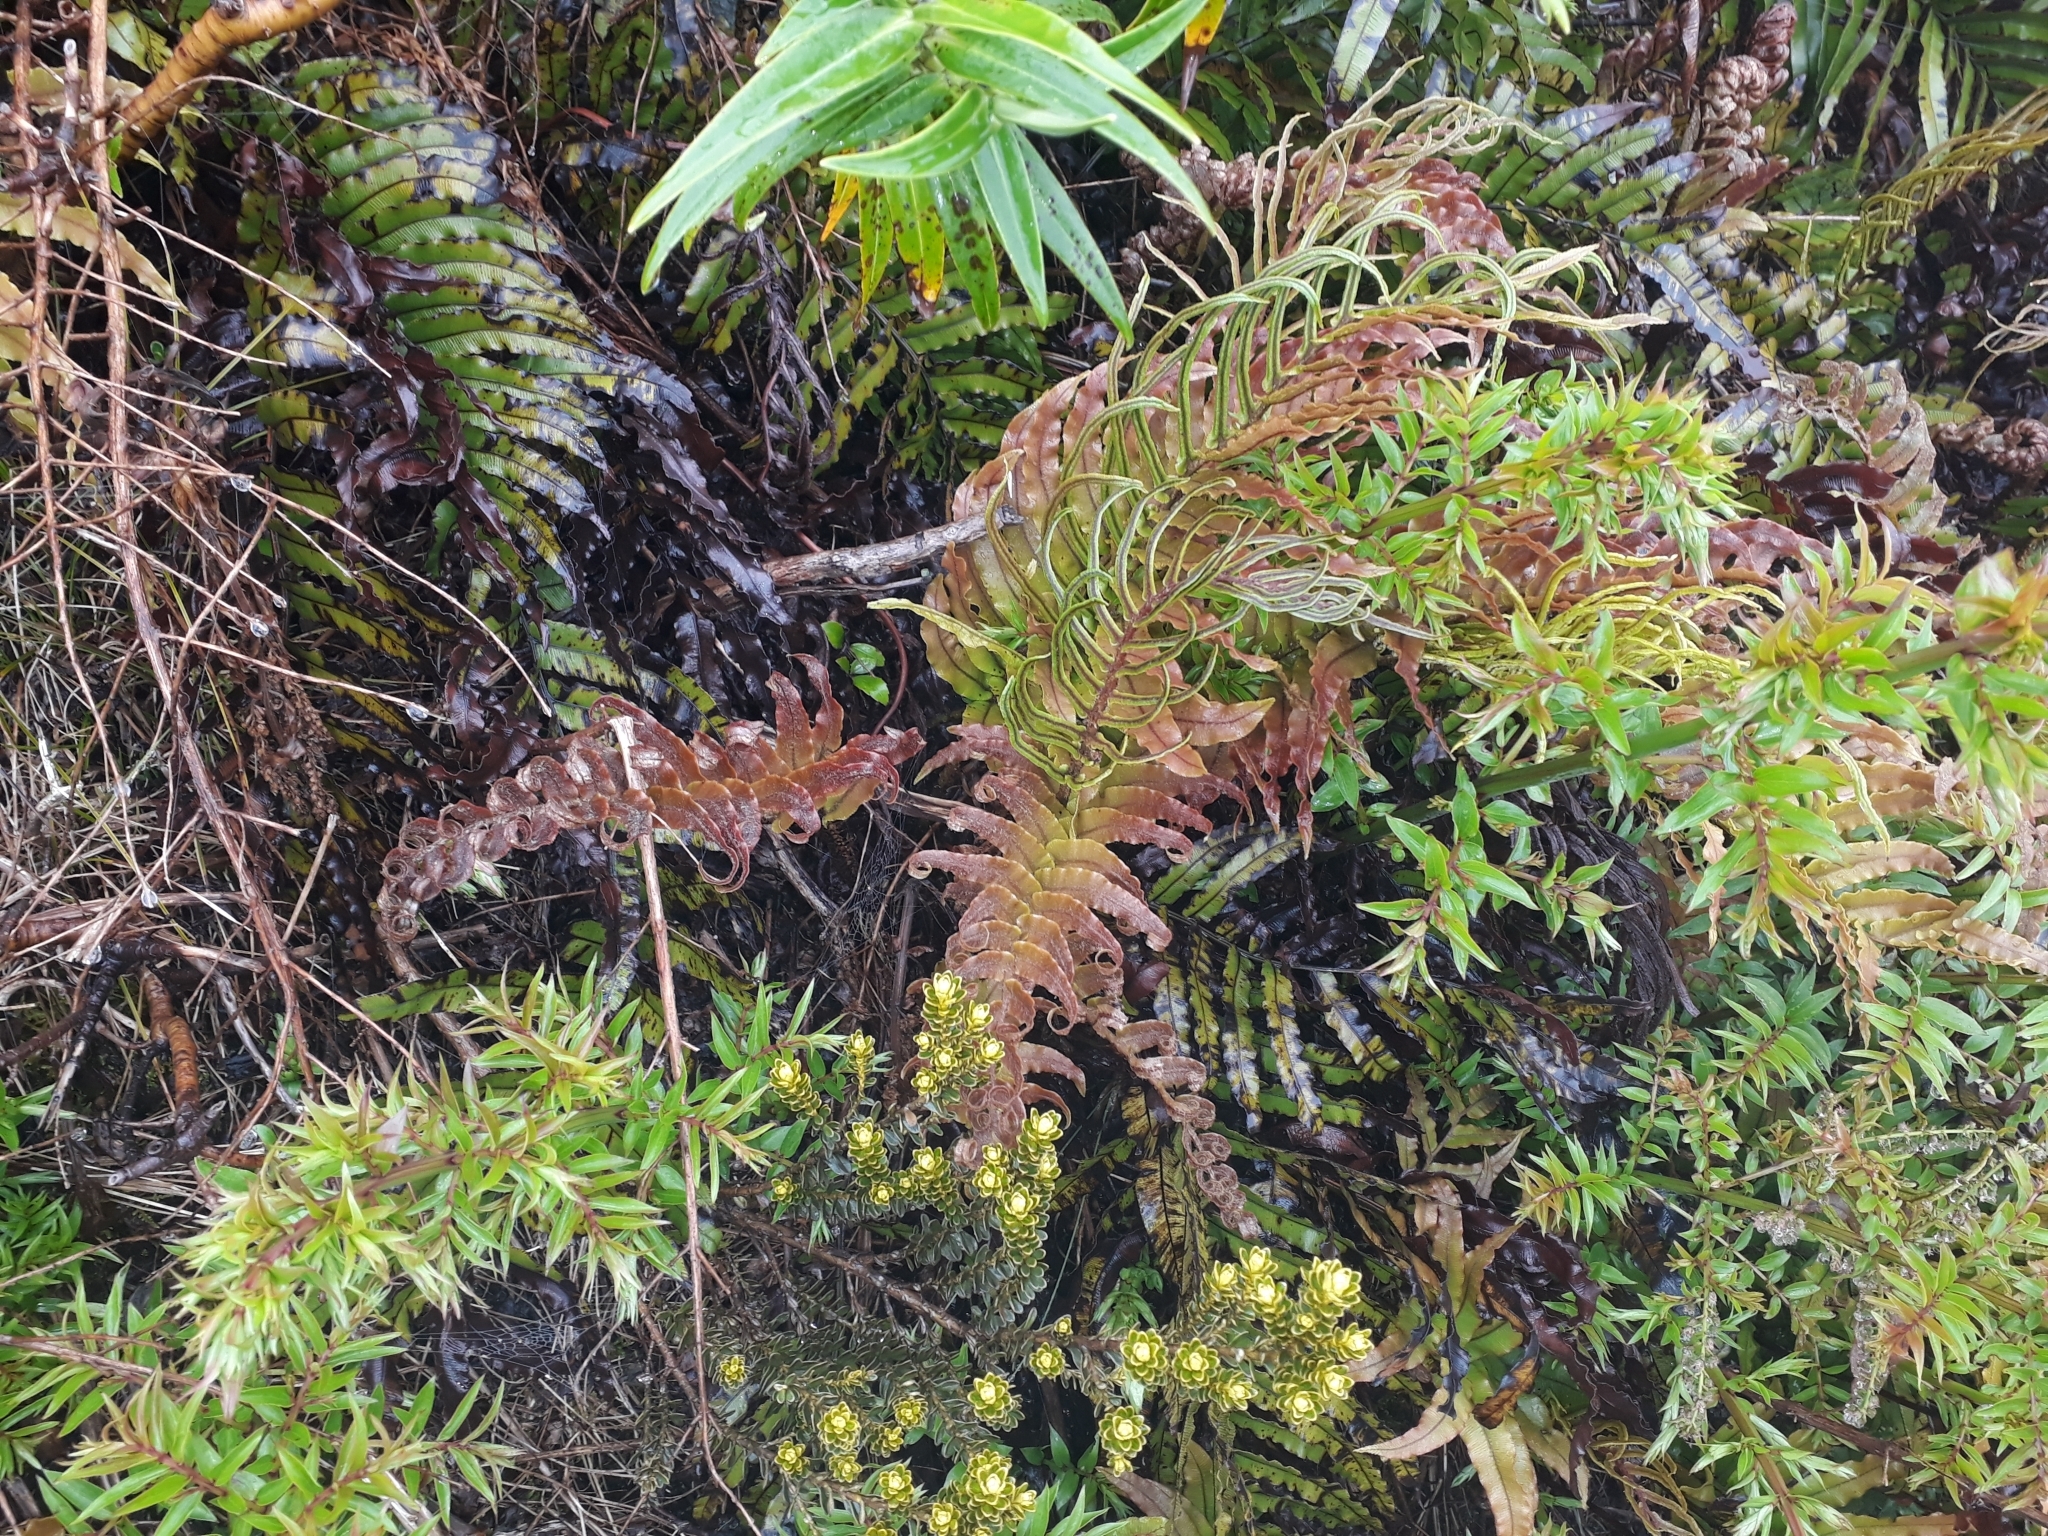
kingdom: Plantae
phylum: Tracheophyta
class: Polypodiopsida
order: Polypodiales
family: Blechnaceae
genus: Parablechnum
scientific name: Parablechnum montanum
